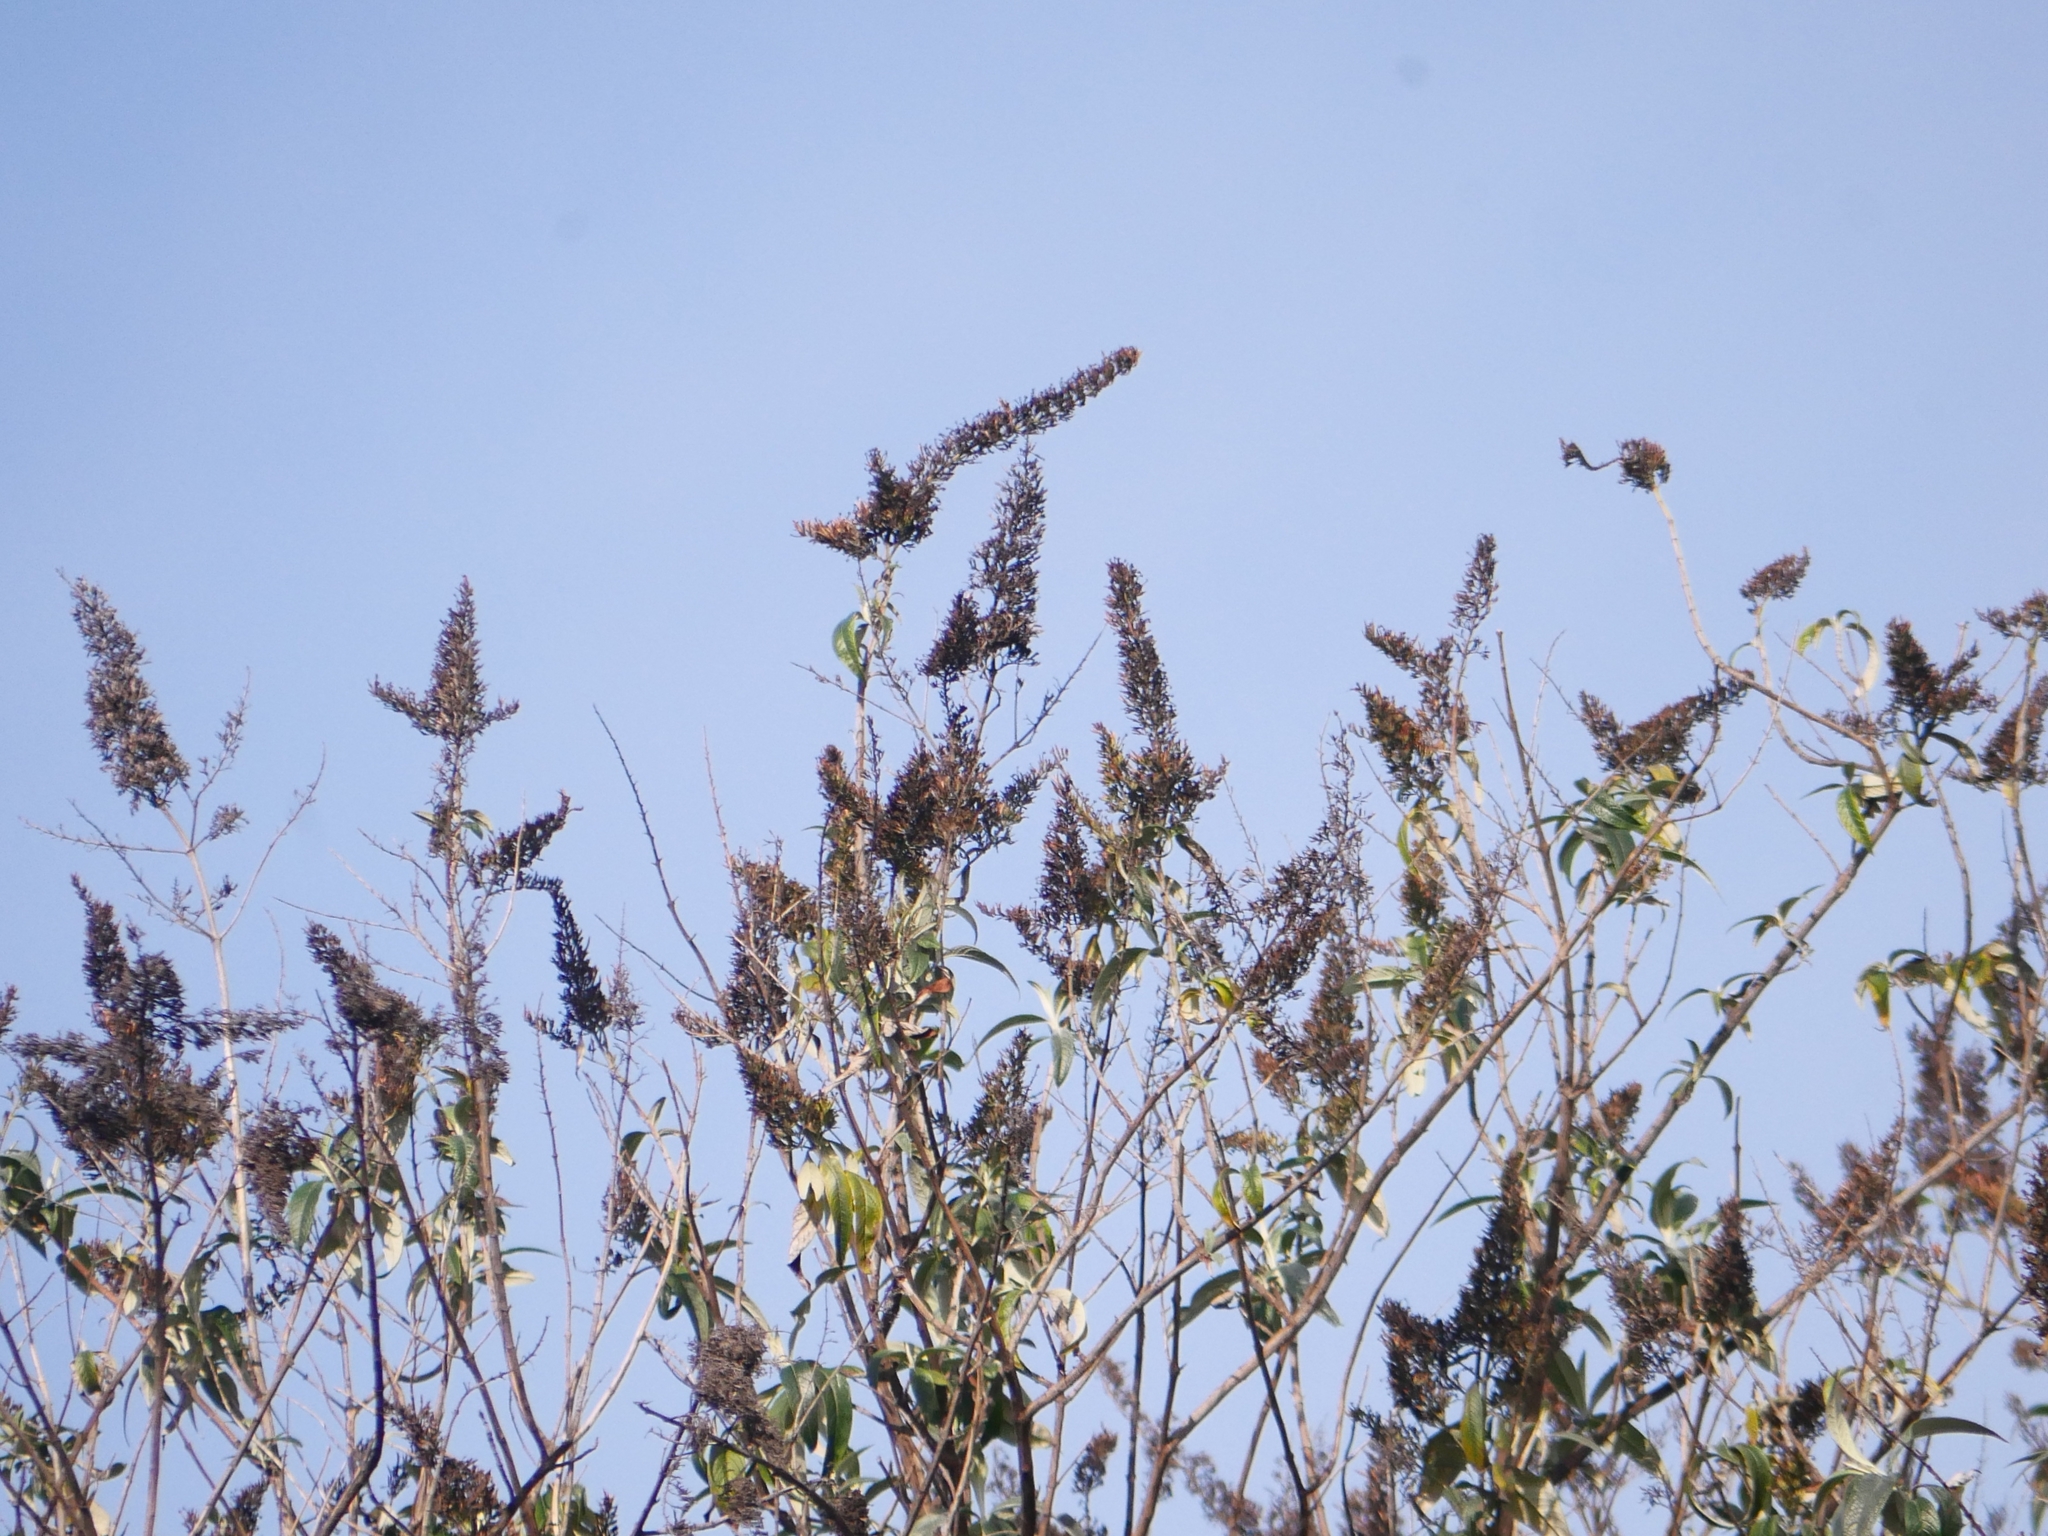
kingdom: Plantae
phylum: Tracheophyta
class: Magnoliopsida
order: Lamiales
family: Scrophulariaceae
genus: Buddleja
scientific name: Buddleja davidii
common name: Butterfly-bush
